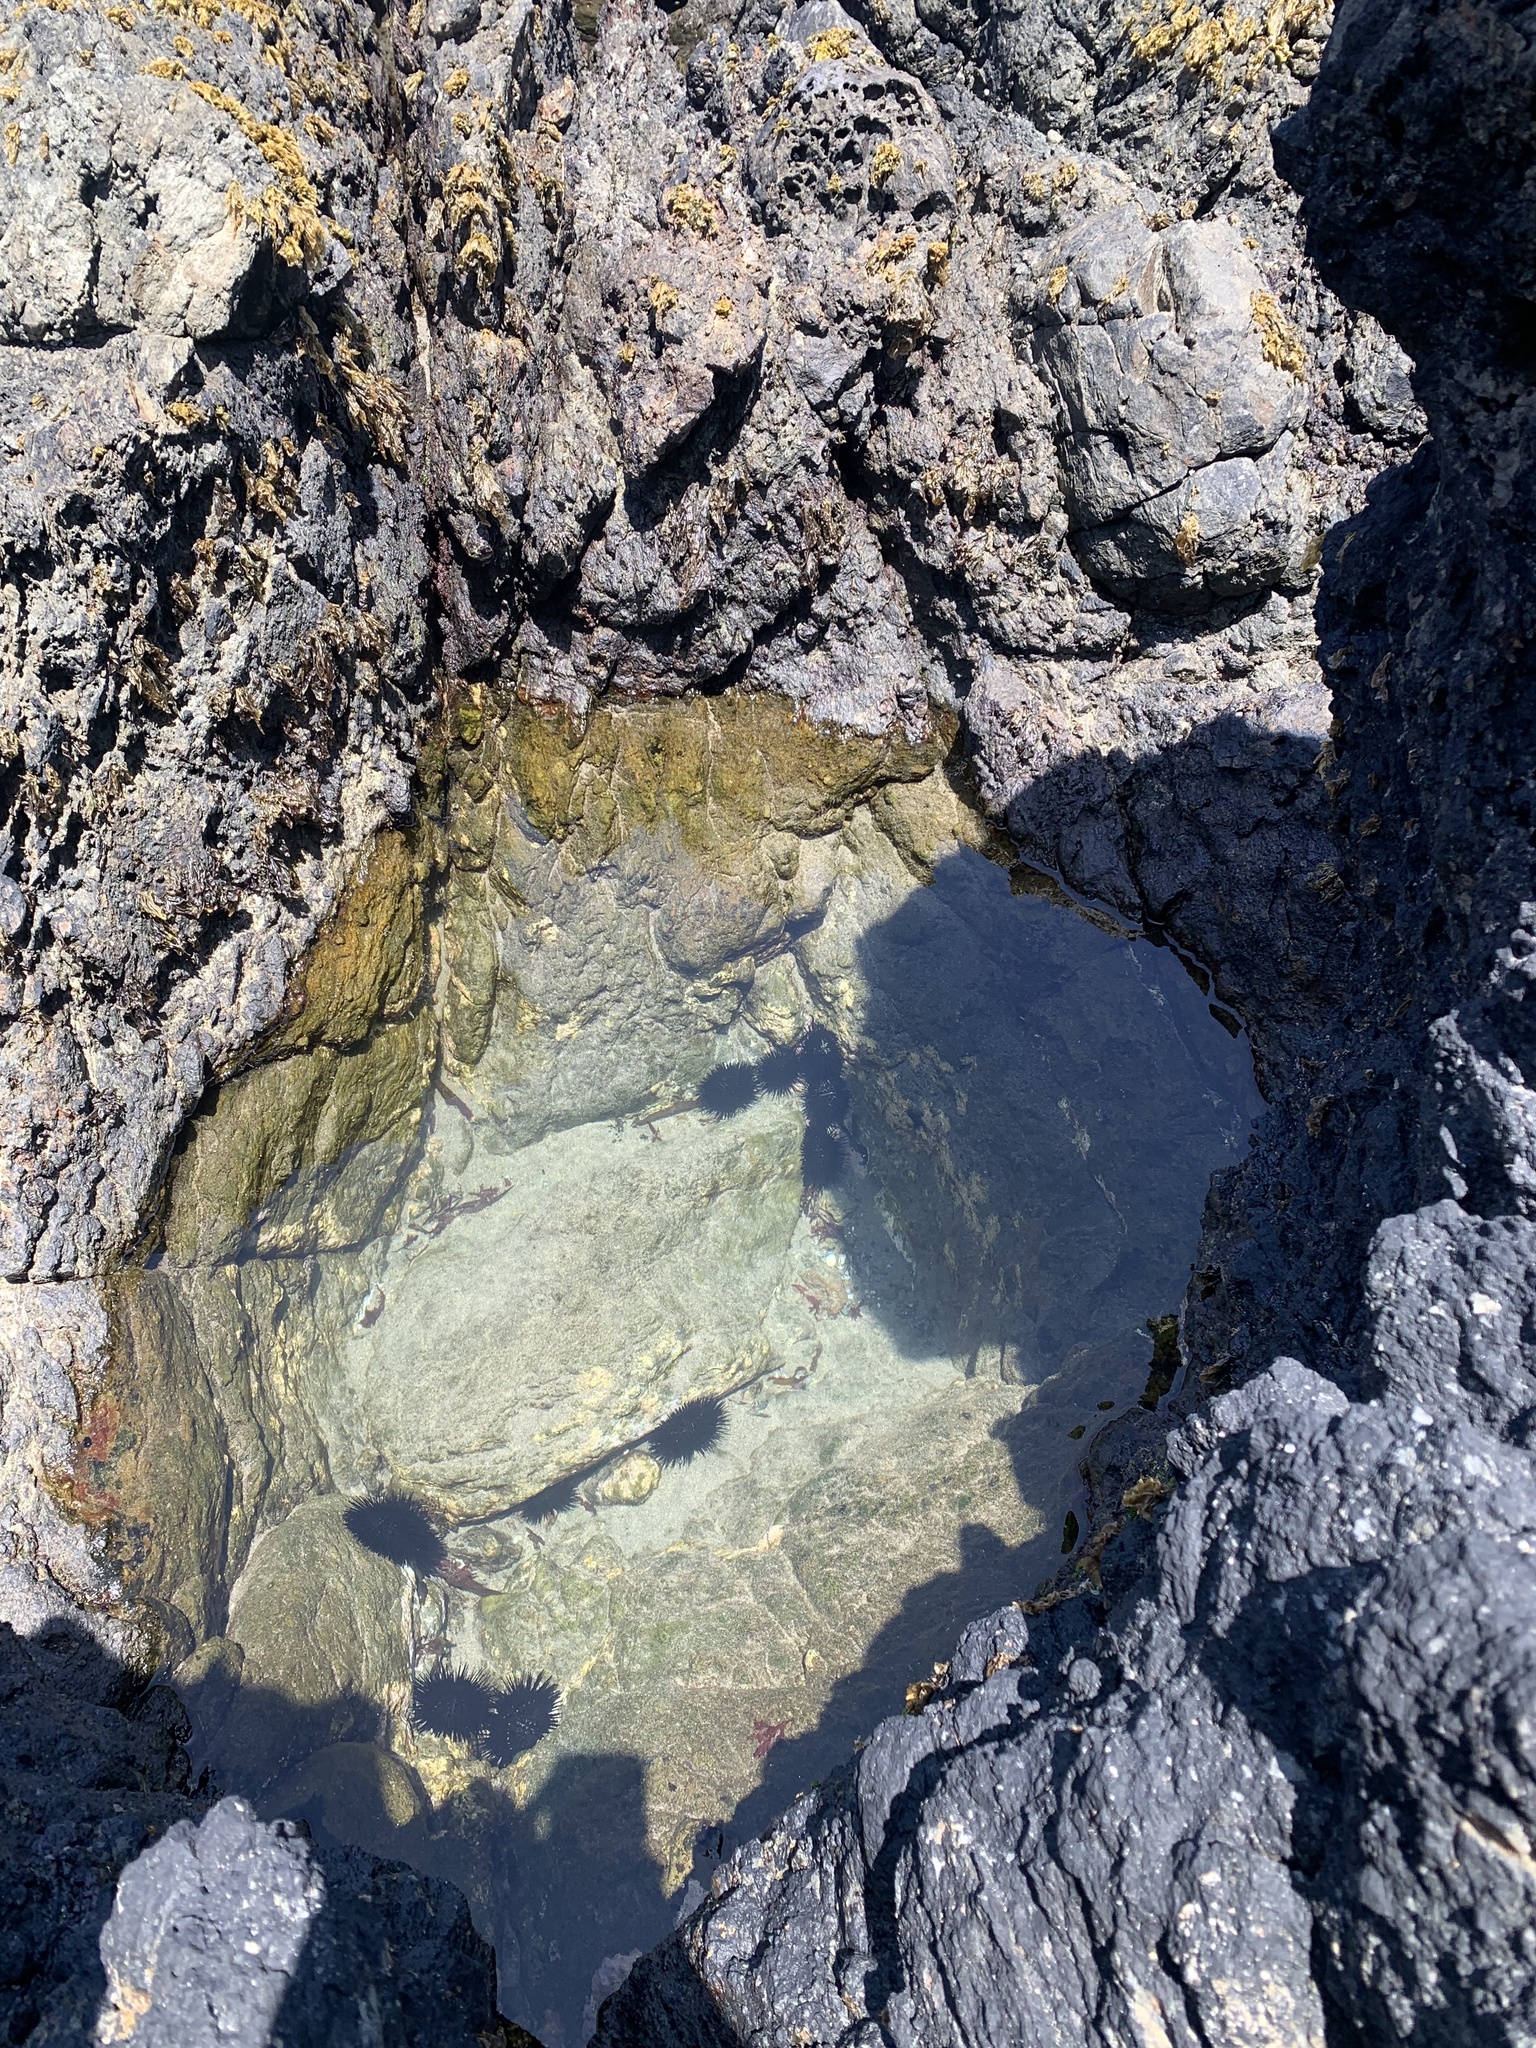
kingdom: Animalia
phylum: Echinodermata
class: Echinoidea
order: Arbacioida
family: Arbaciidae
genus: Tetrapygus
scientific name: Tetrapygus niger
